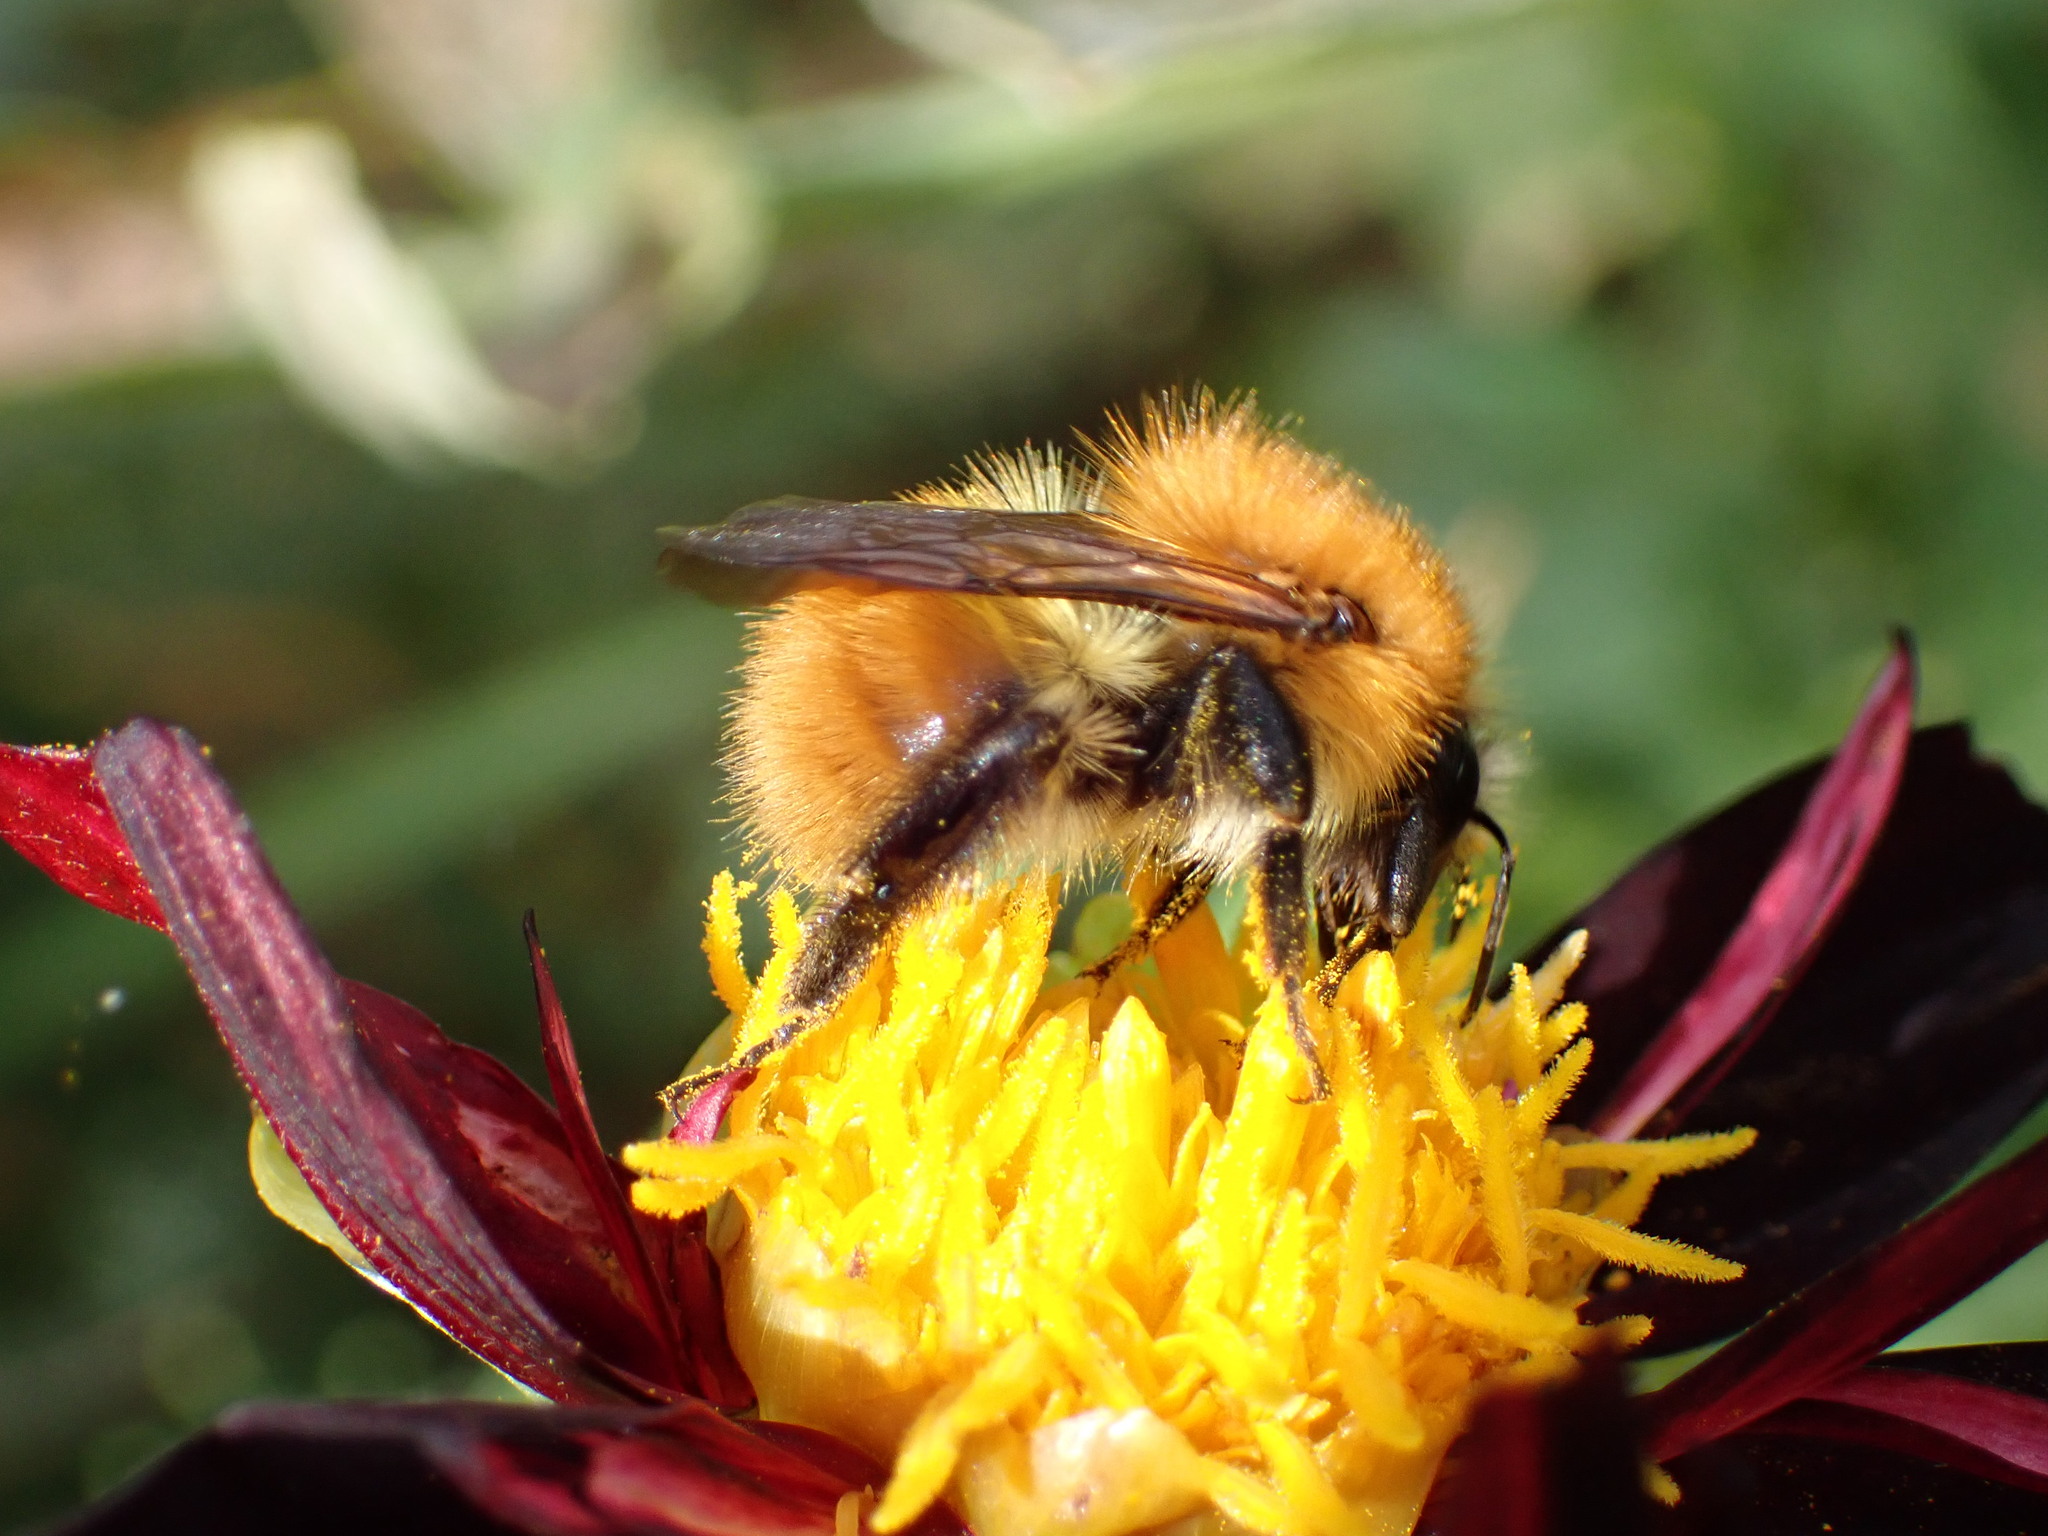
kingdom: Animalia
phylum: Arthropoda
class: Insecta
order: Hymenoptera
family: Apidae
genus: Bombus
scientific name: Bombus pascuorum
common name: Common carder bee
